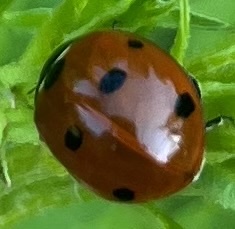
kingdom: Animalia
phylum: Arthropoda
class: Insecta
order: Coleoptera
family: Coccinellidae
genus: Coccinella
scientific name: Coccinella septempunctata
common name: Sevenspotted lady beetle
